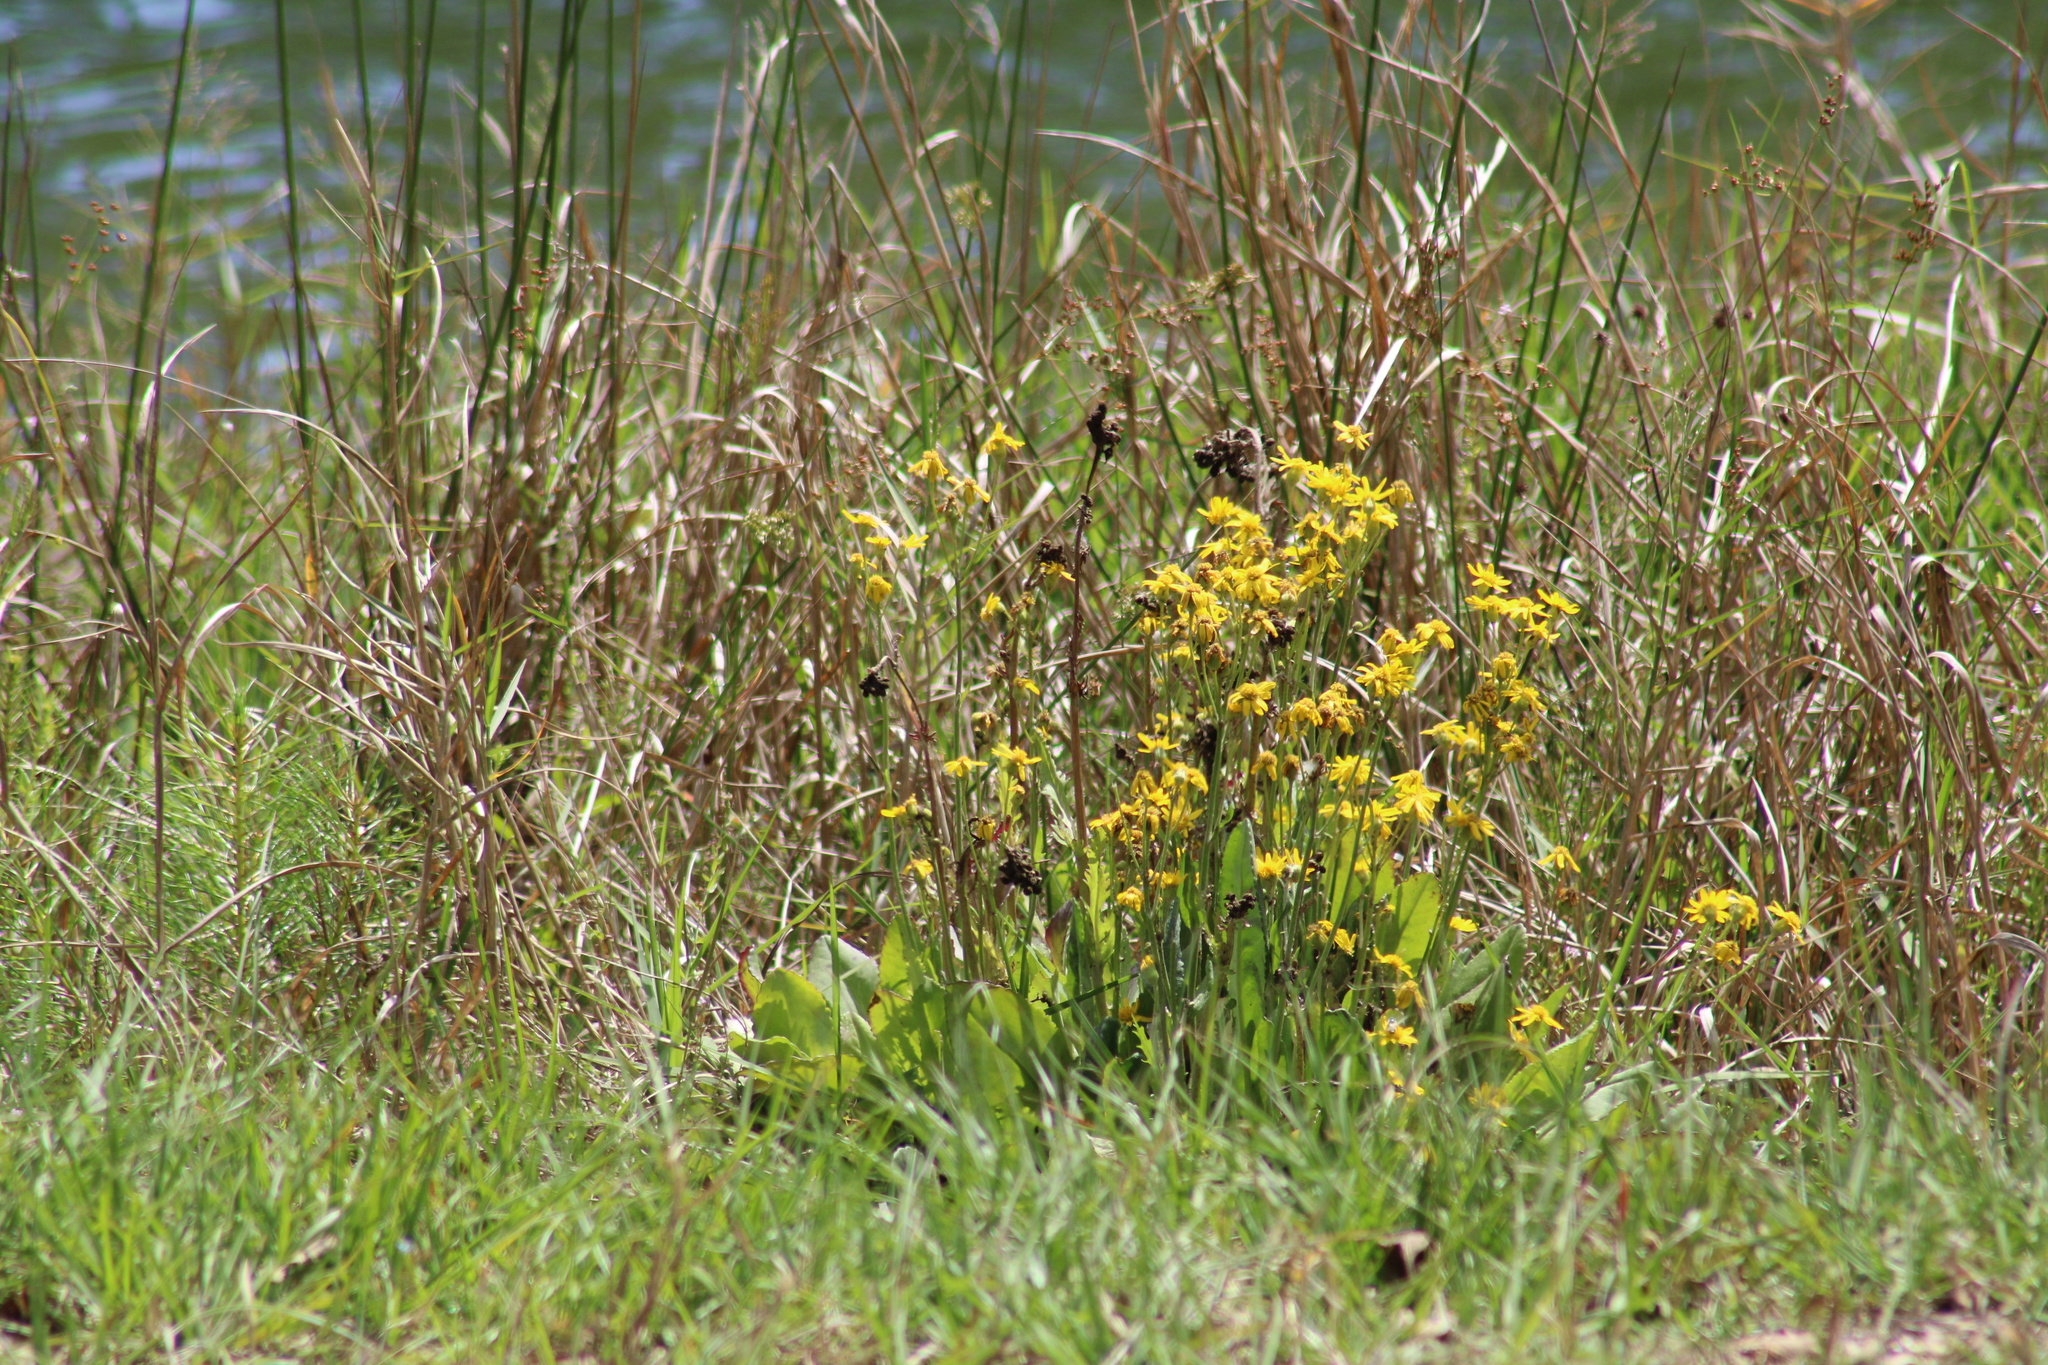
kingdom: Plantae
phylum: Tracheophyta
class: Magnoliopsida
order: Asterales
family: Asteraceae
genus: Packera
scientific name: Packera anonyma
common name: Small ragwort
